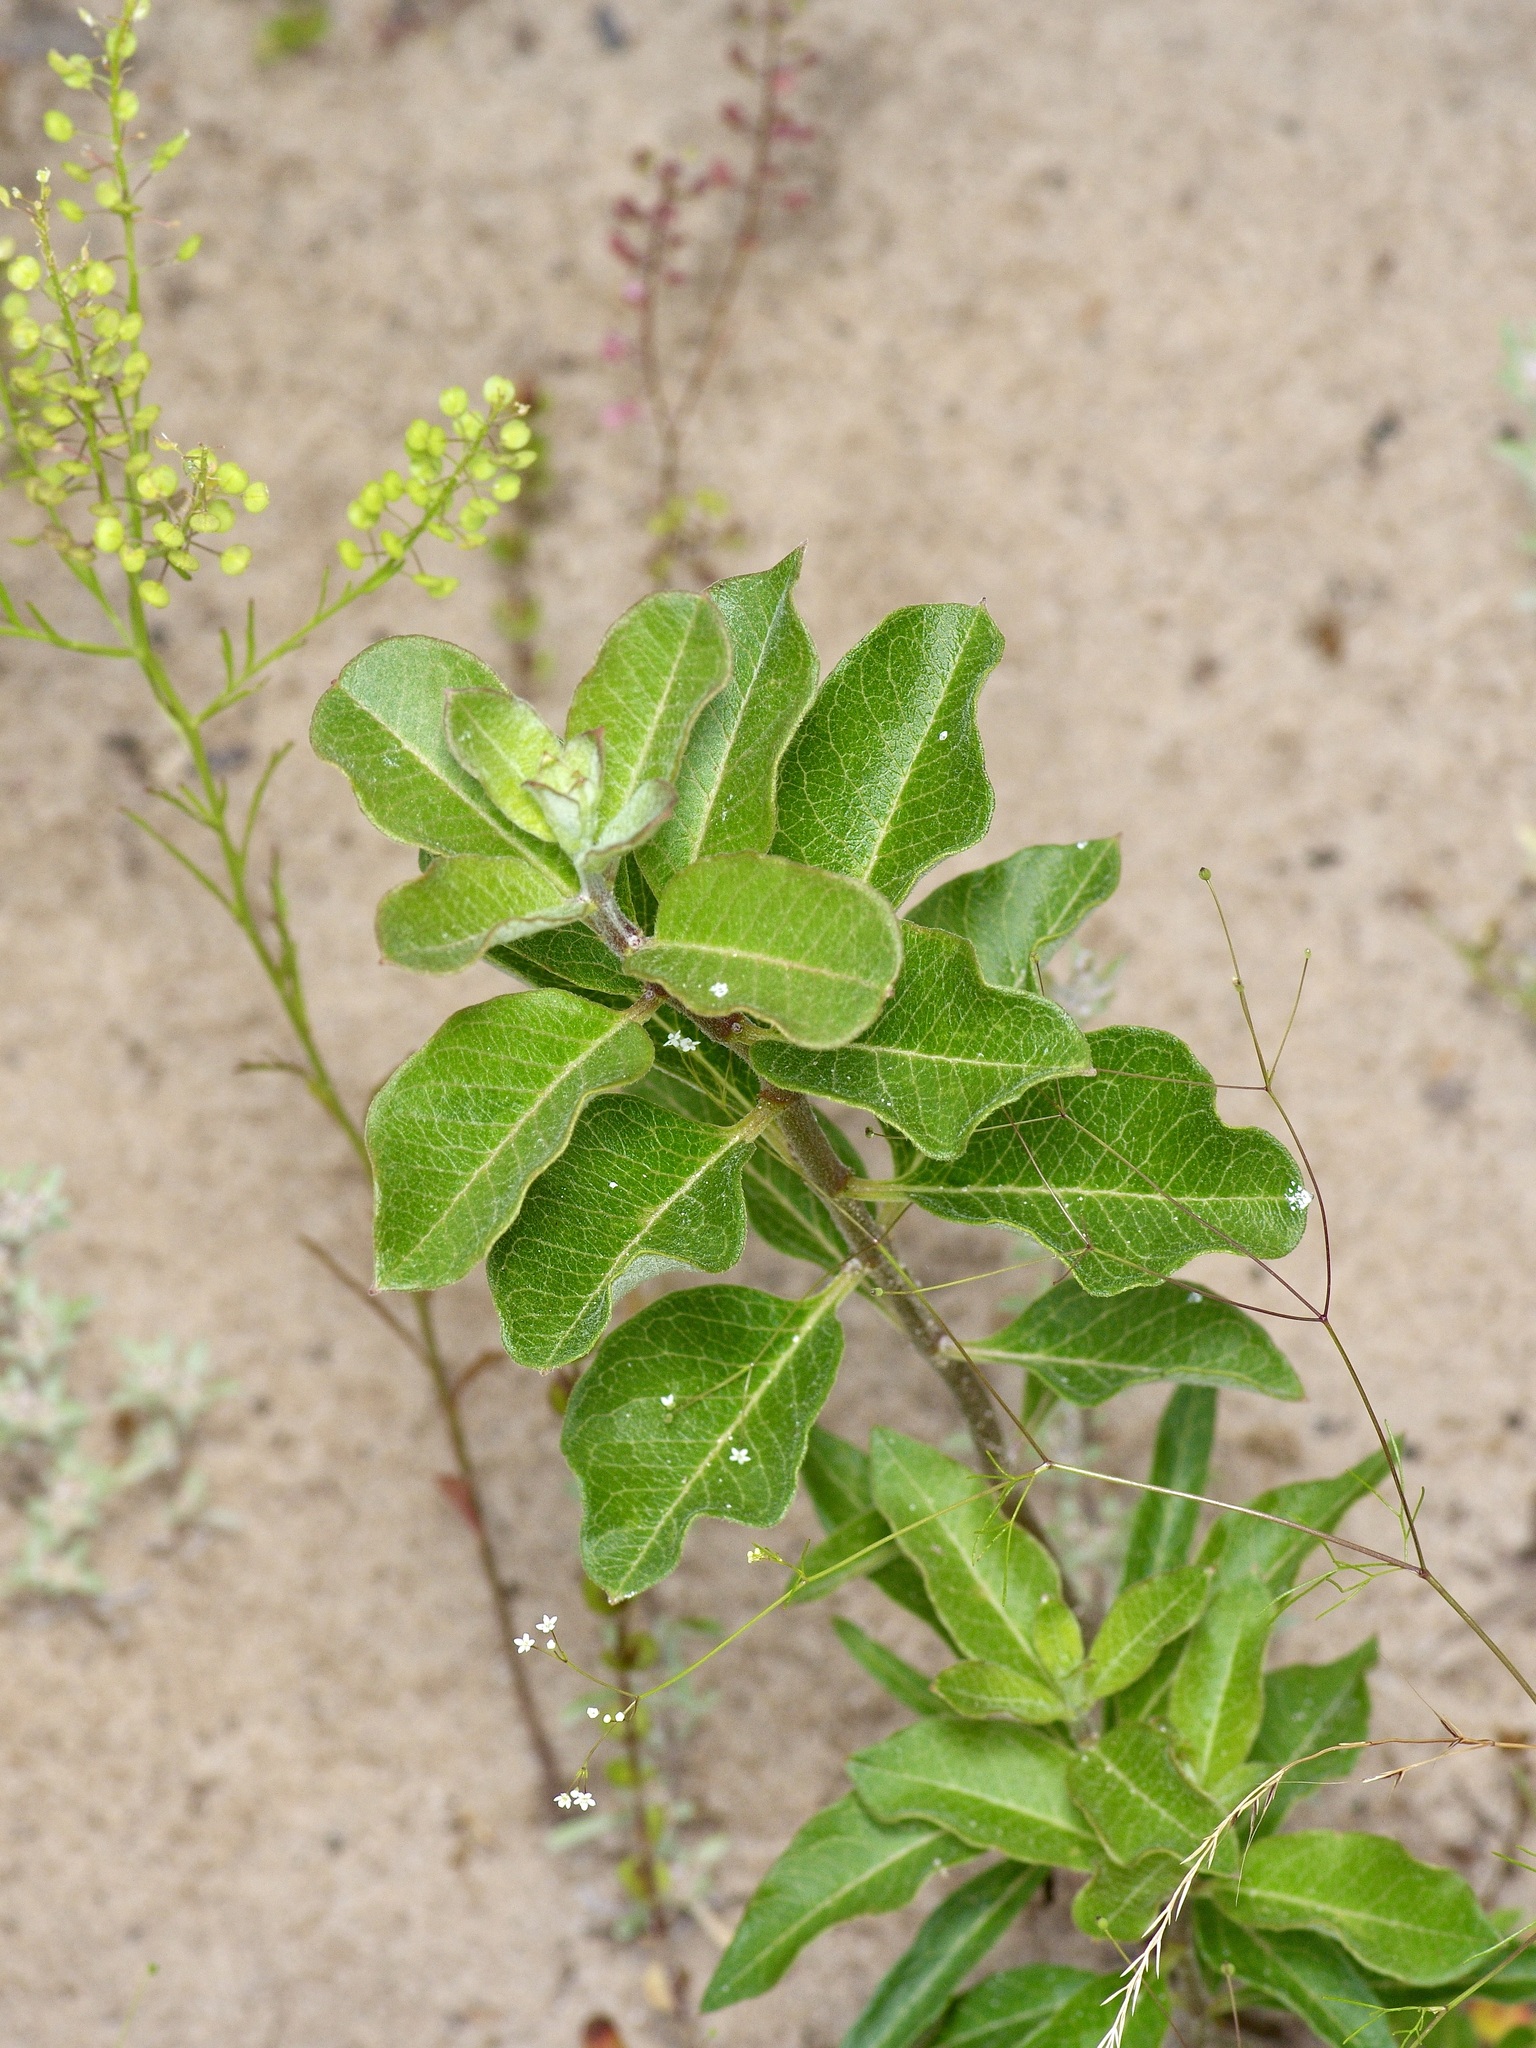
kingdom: Plantae
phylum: Tracheophyta
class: Magnoliopsida
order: Gentianales
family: Apocynaceae
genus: Asclepias
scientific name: Asclepias tomentosa
